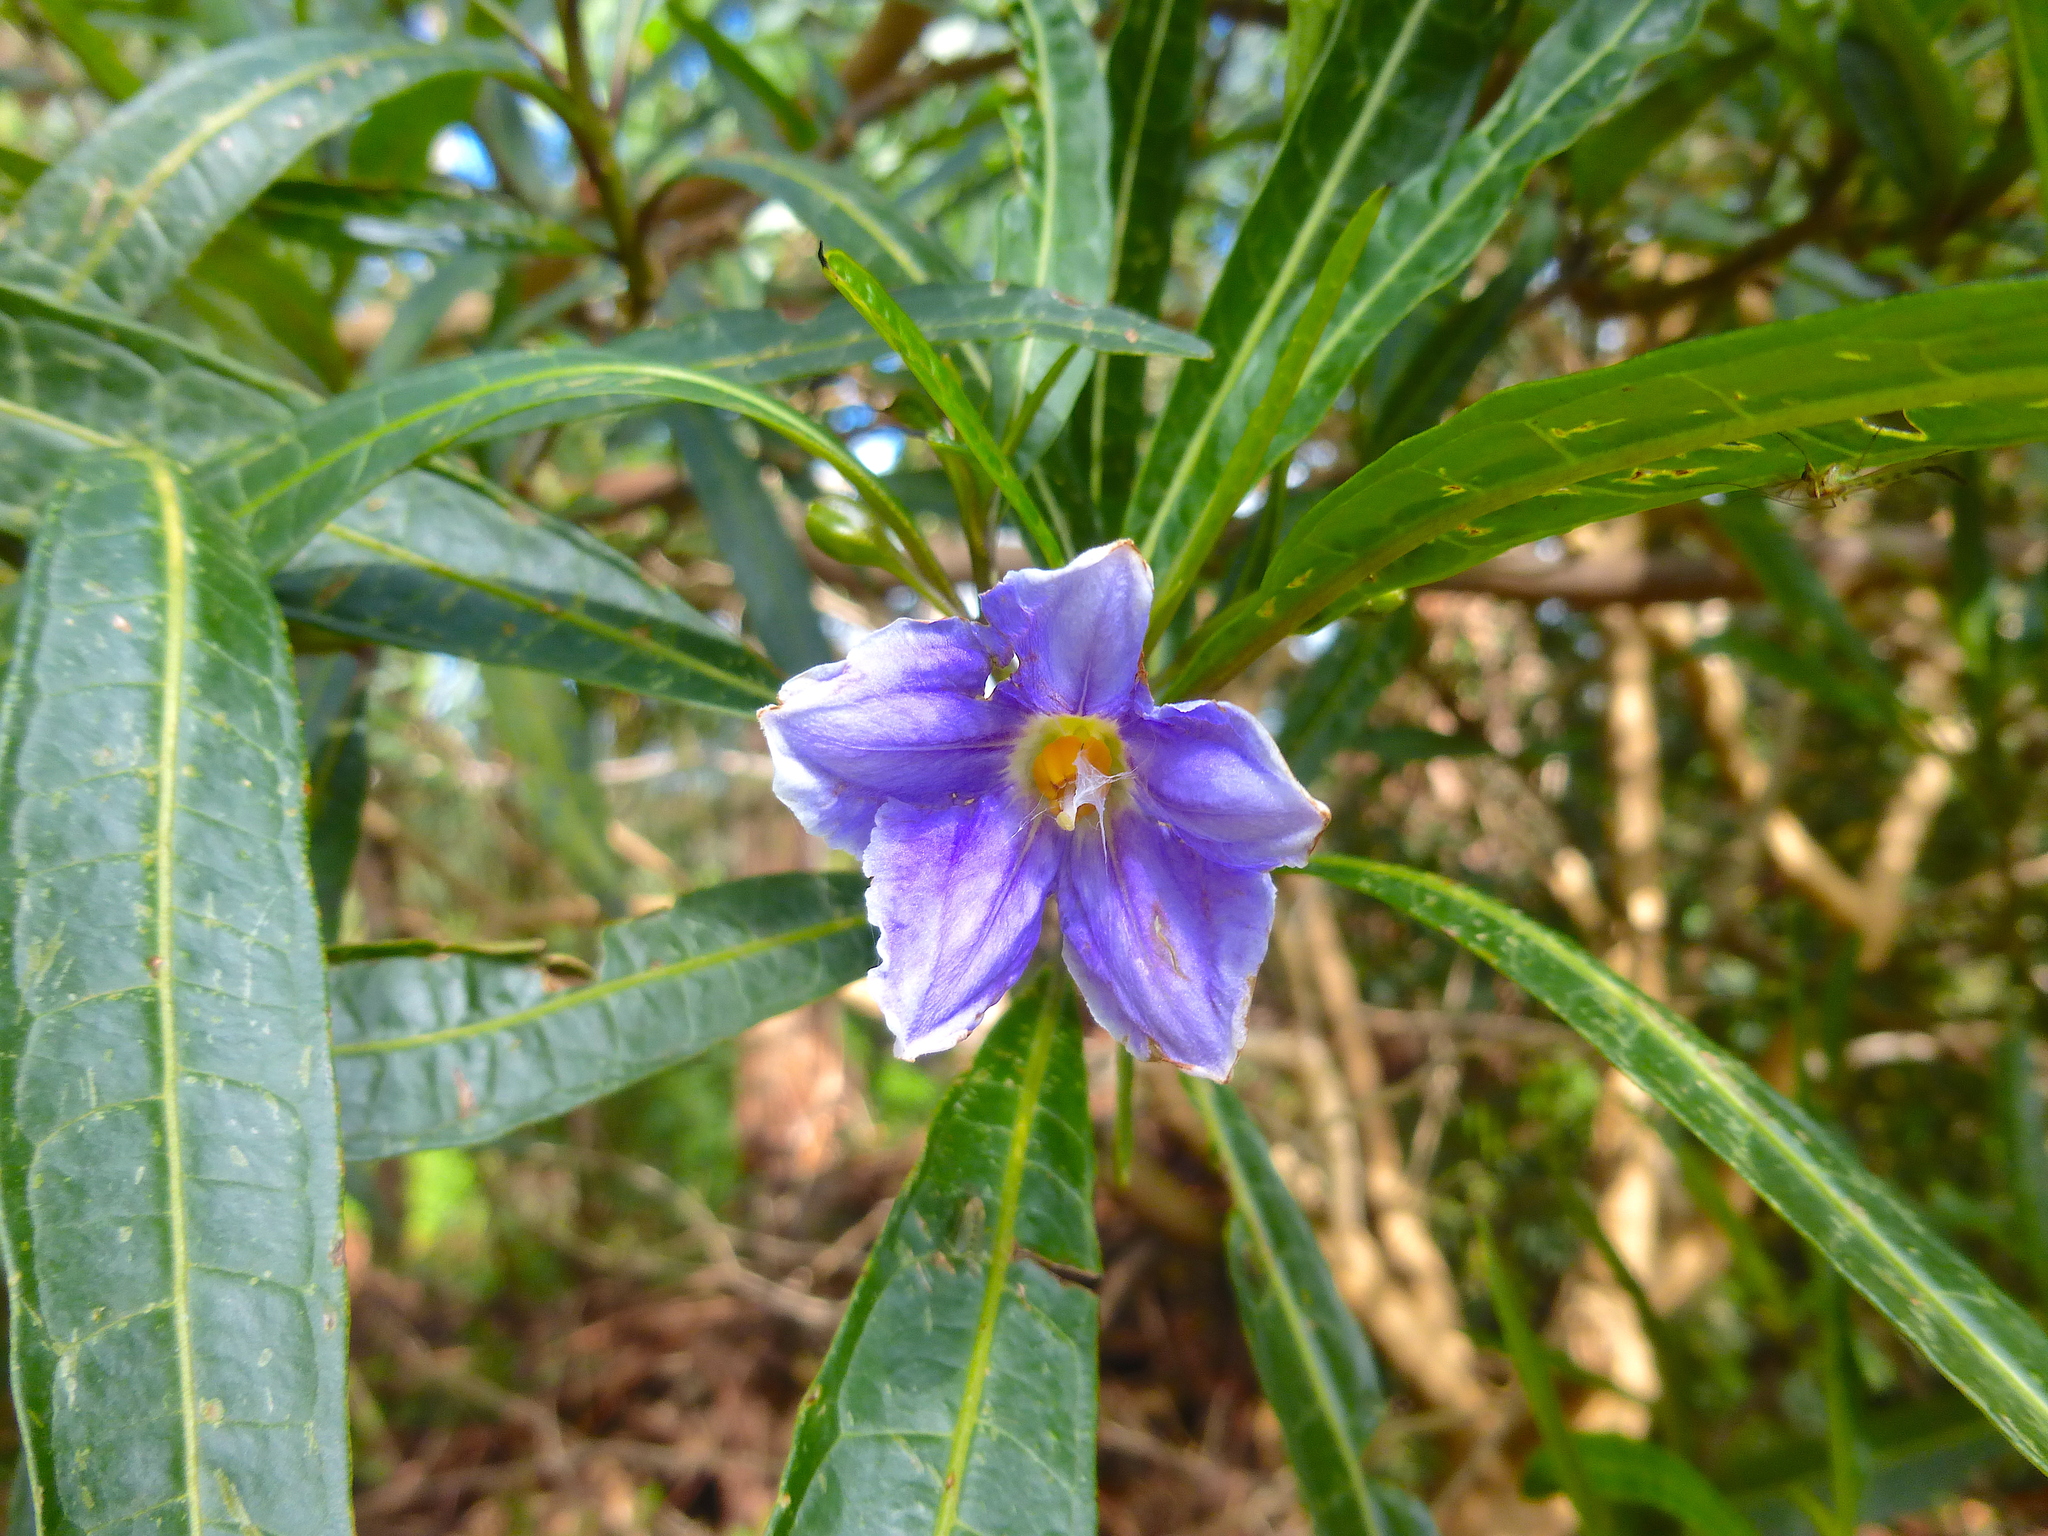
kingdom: Plantae
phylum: Tracheophyta
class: Magnoliopsida
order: Solanales
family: Solanaceae
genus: Solanum
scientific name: Solanum aviculare
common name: New zealand nightshade
